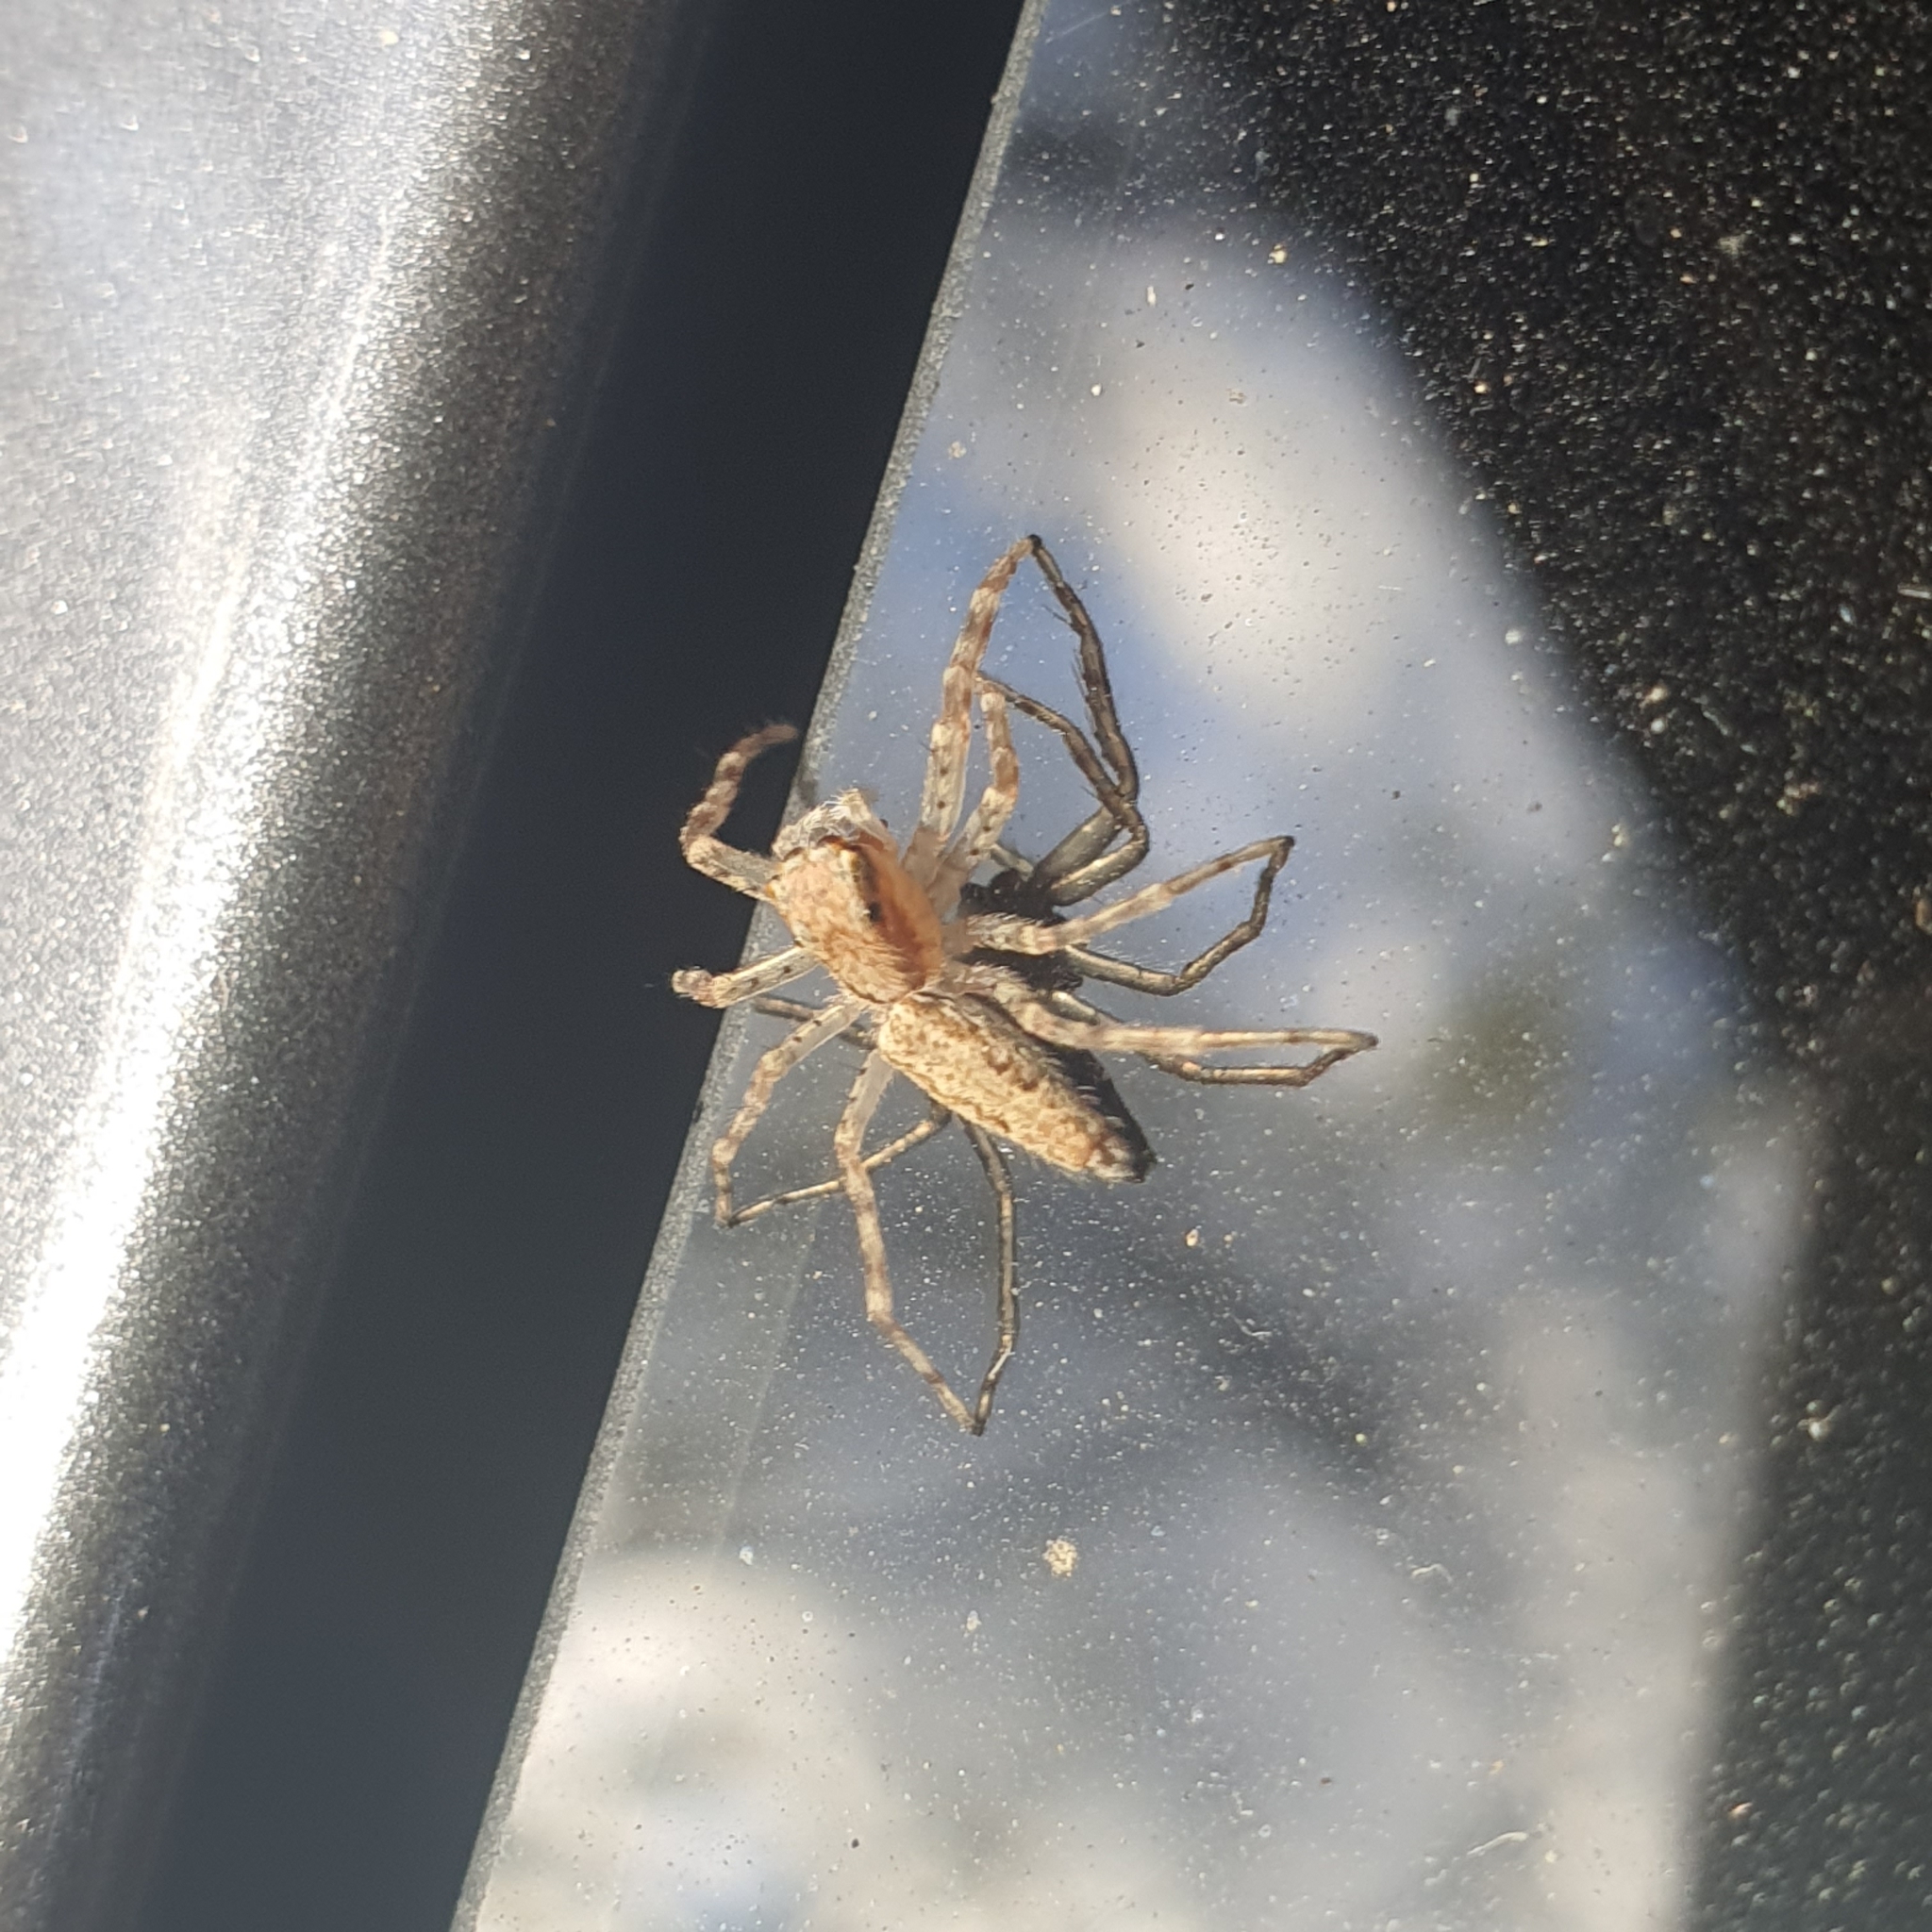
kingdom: Animalia
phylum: Arthropoda
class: Arachnida
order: Araneae
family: Salticidae
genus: Helpis
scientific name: Helpis minitabunda
